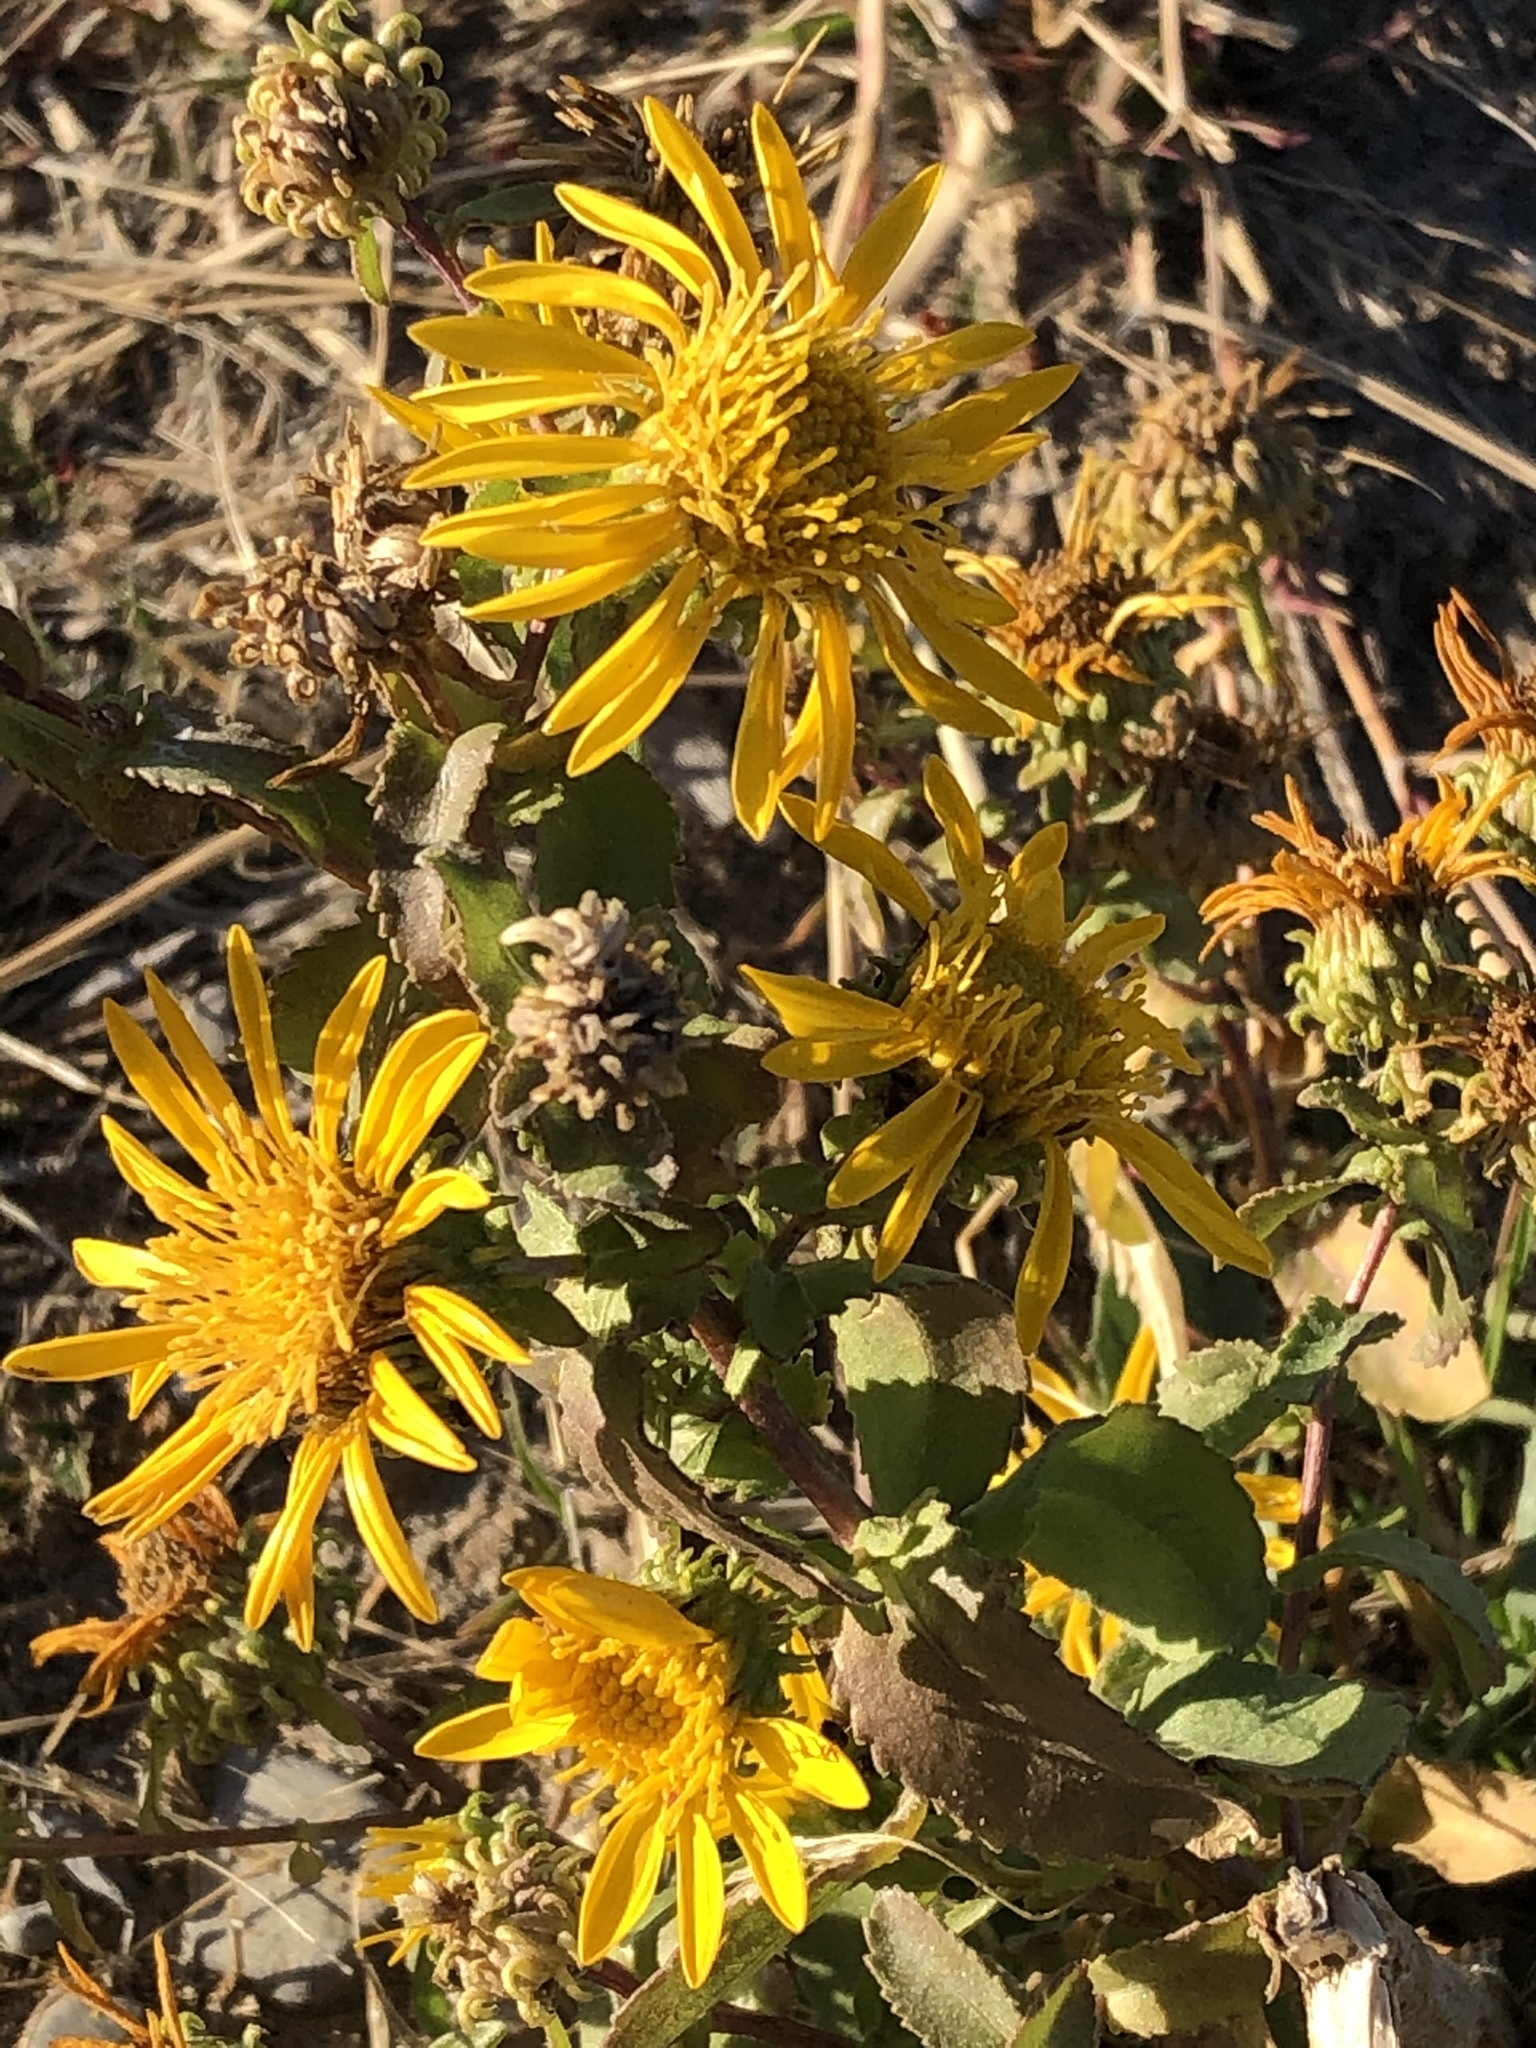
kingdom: Plantae
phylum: Tracheophyta
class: Magnoliopsida
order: Asterales
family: Asteraceae
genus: Grindelia
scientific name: Grindelia squarrosa
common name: Curly-cup gumweed
